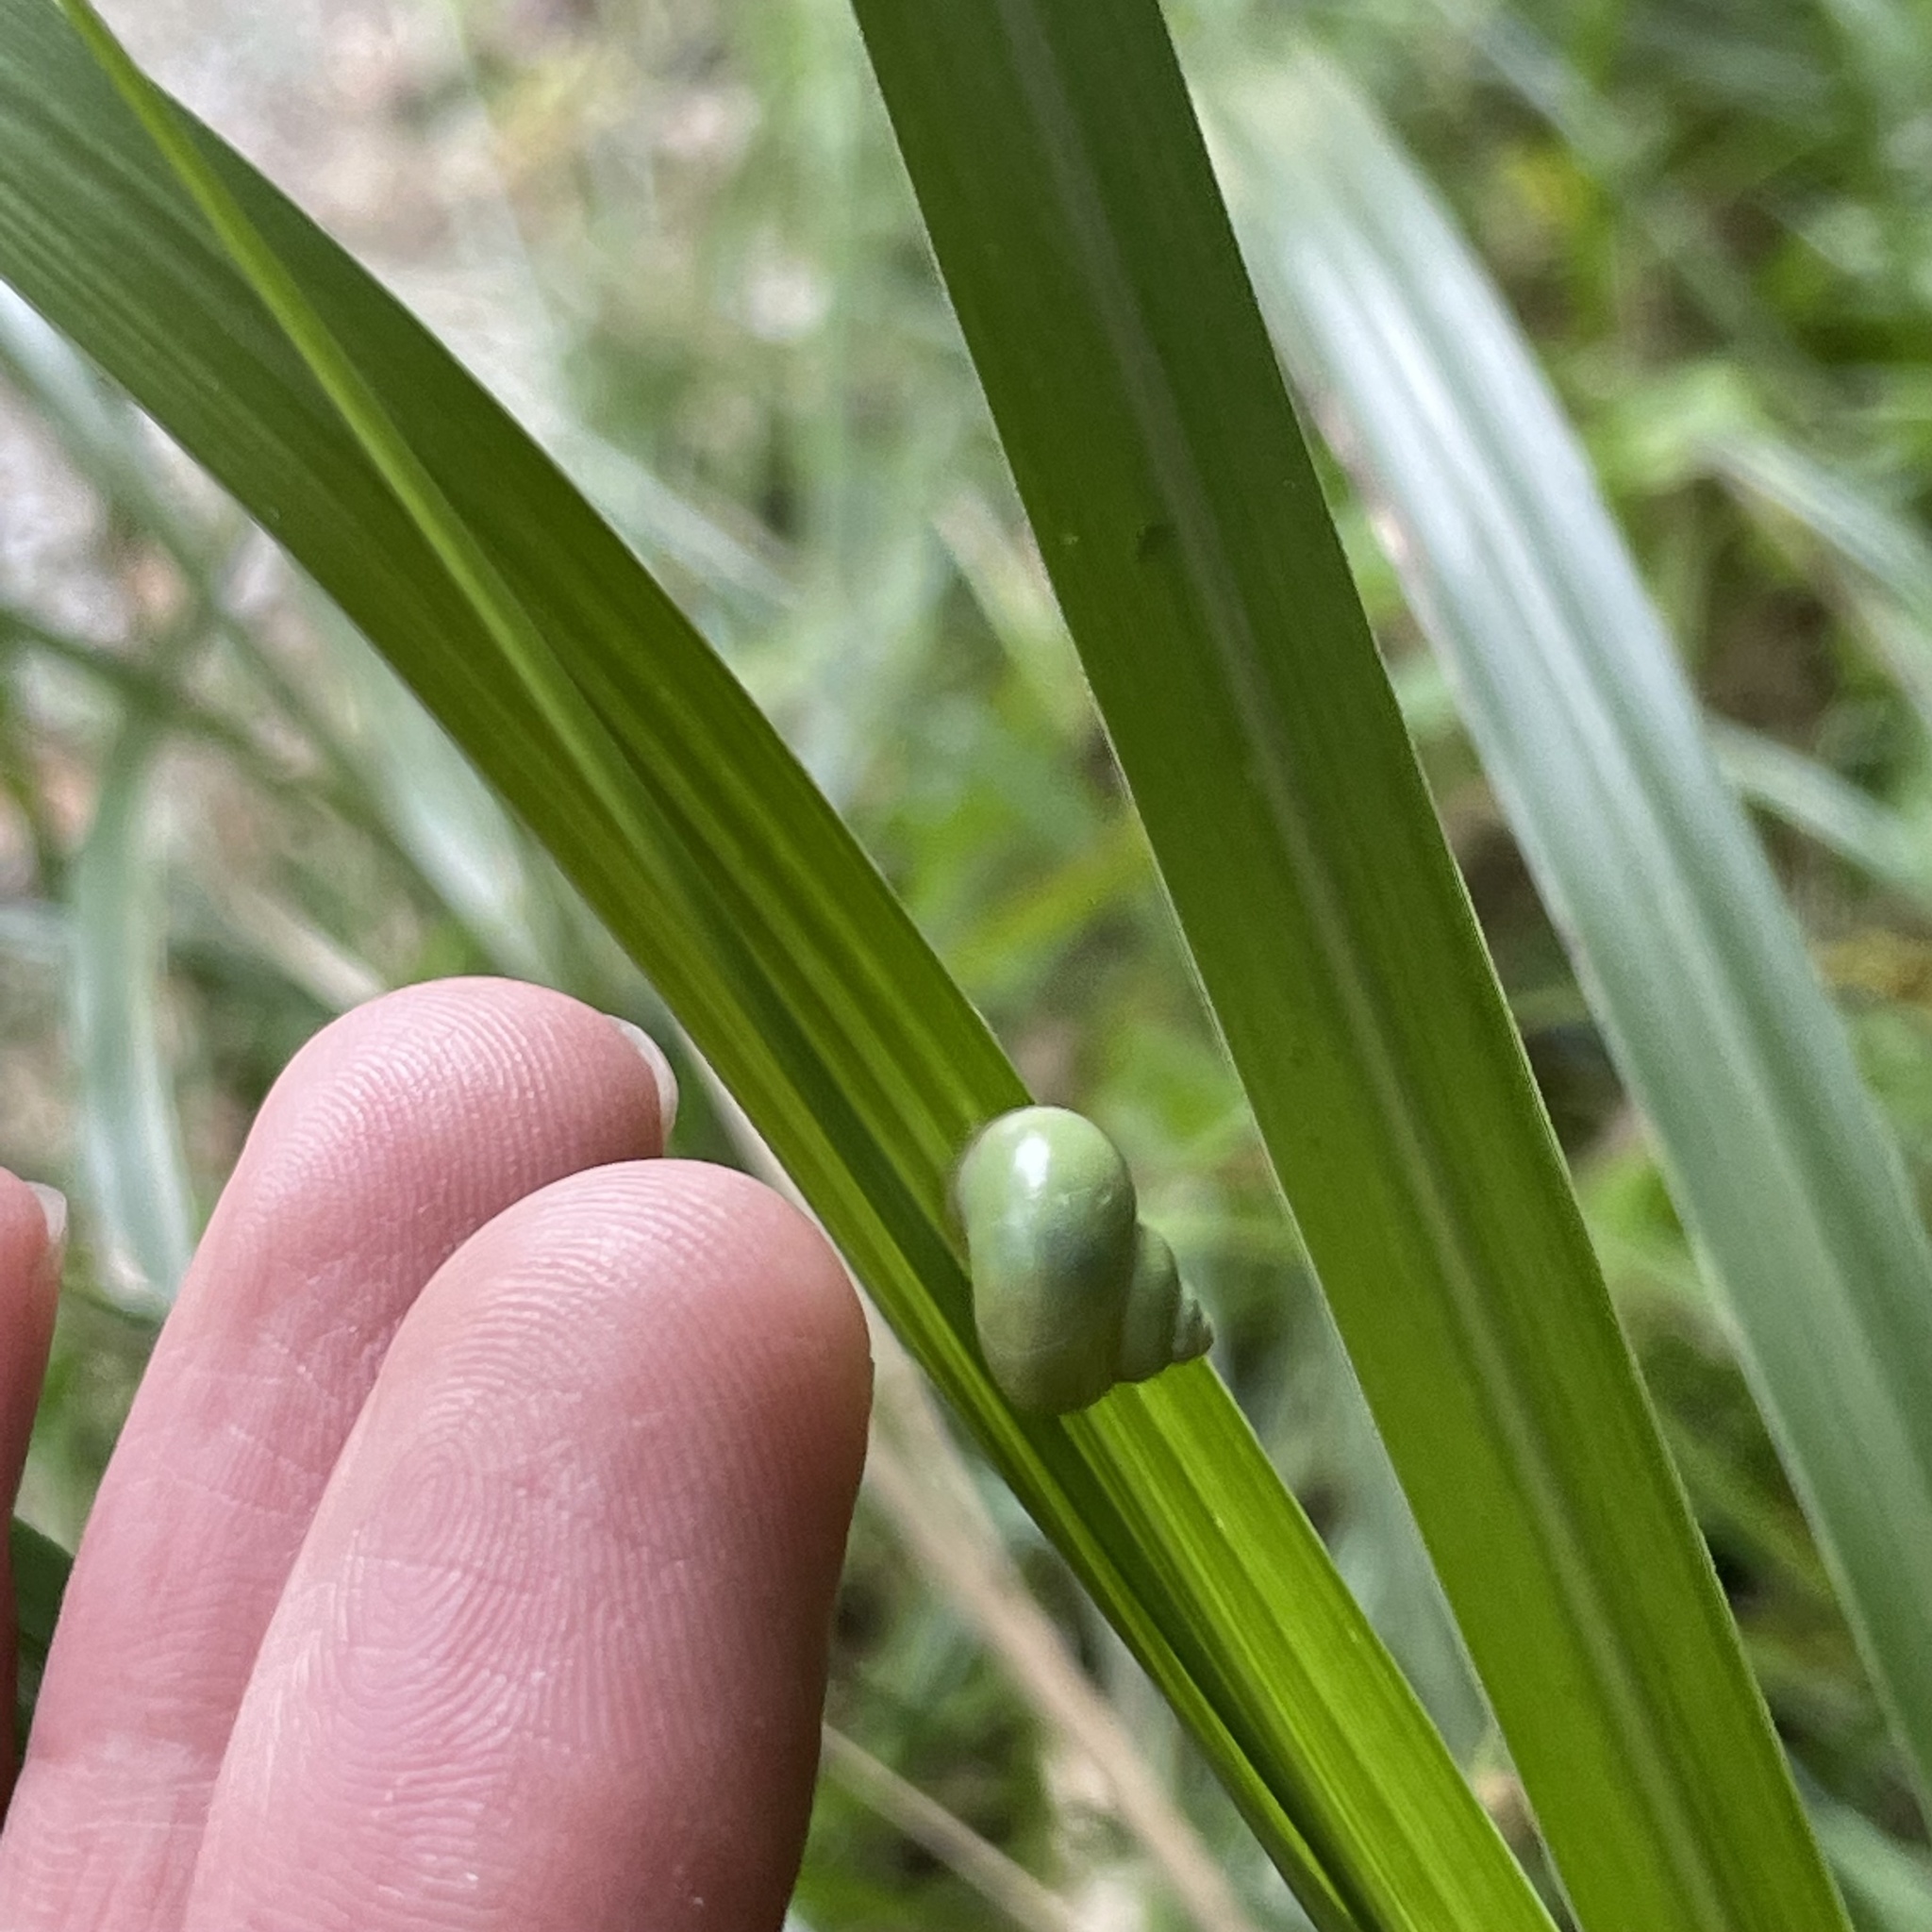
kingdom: Animalia
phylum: Mollusca
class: Gastropoda
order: Architaenioglossa
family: Cyclophoridae
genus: Leptopoma
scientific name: Leptopoma nitidum
